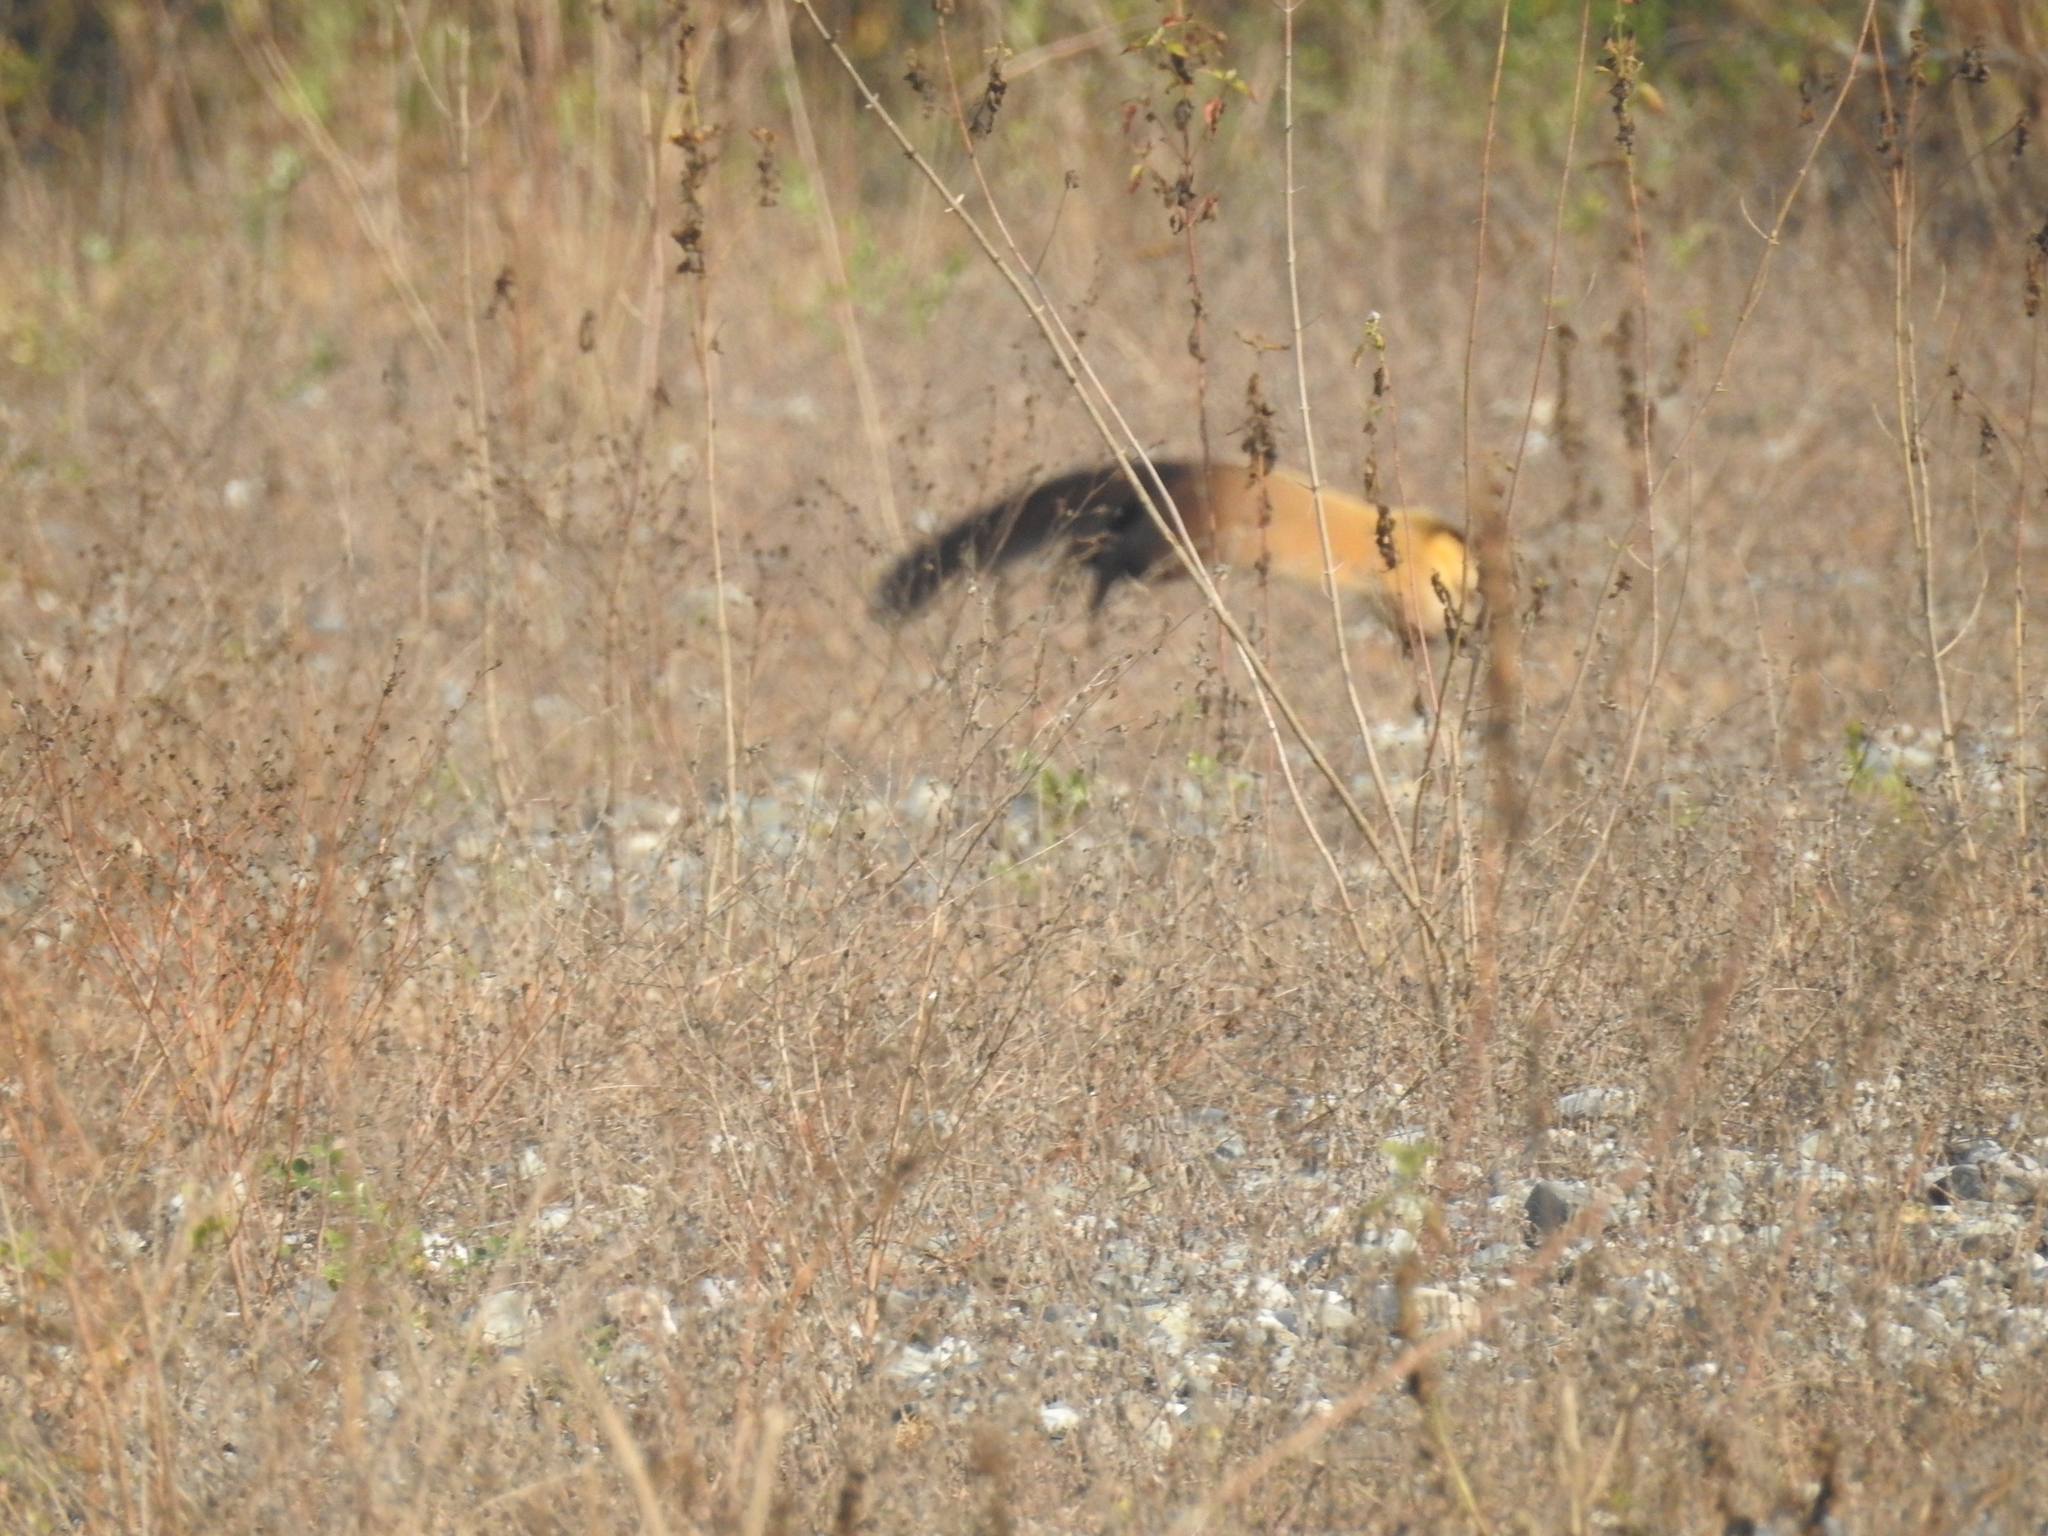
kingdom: Animalia
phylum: Chordata
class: Mammalia
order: Carnivora
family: Mustelidae
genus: Martes
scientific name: Martes flavigula
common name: Yellow-throated marten
